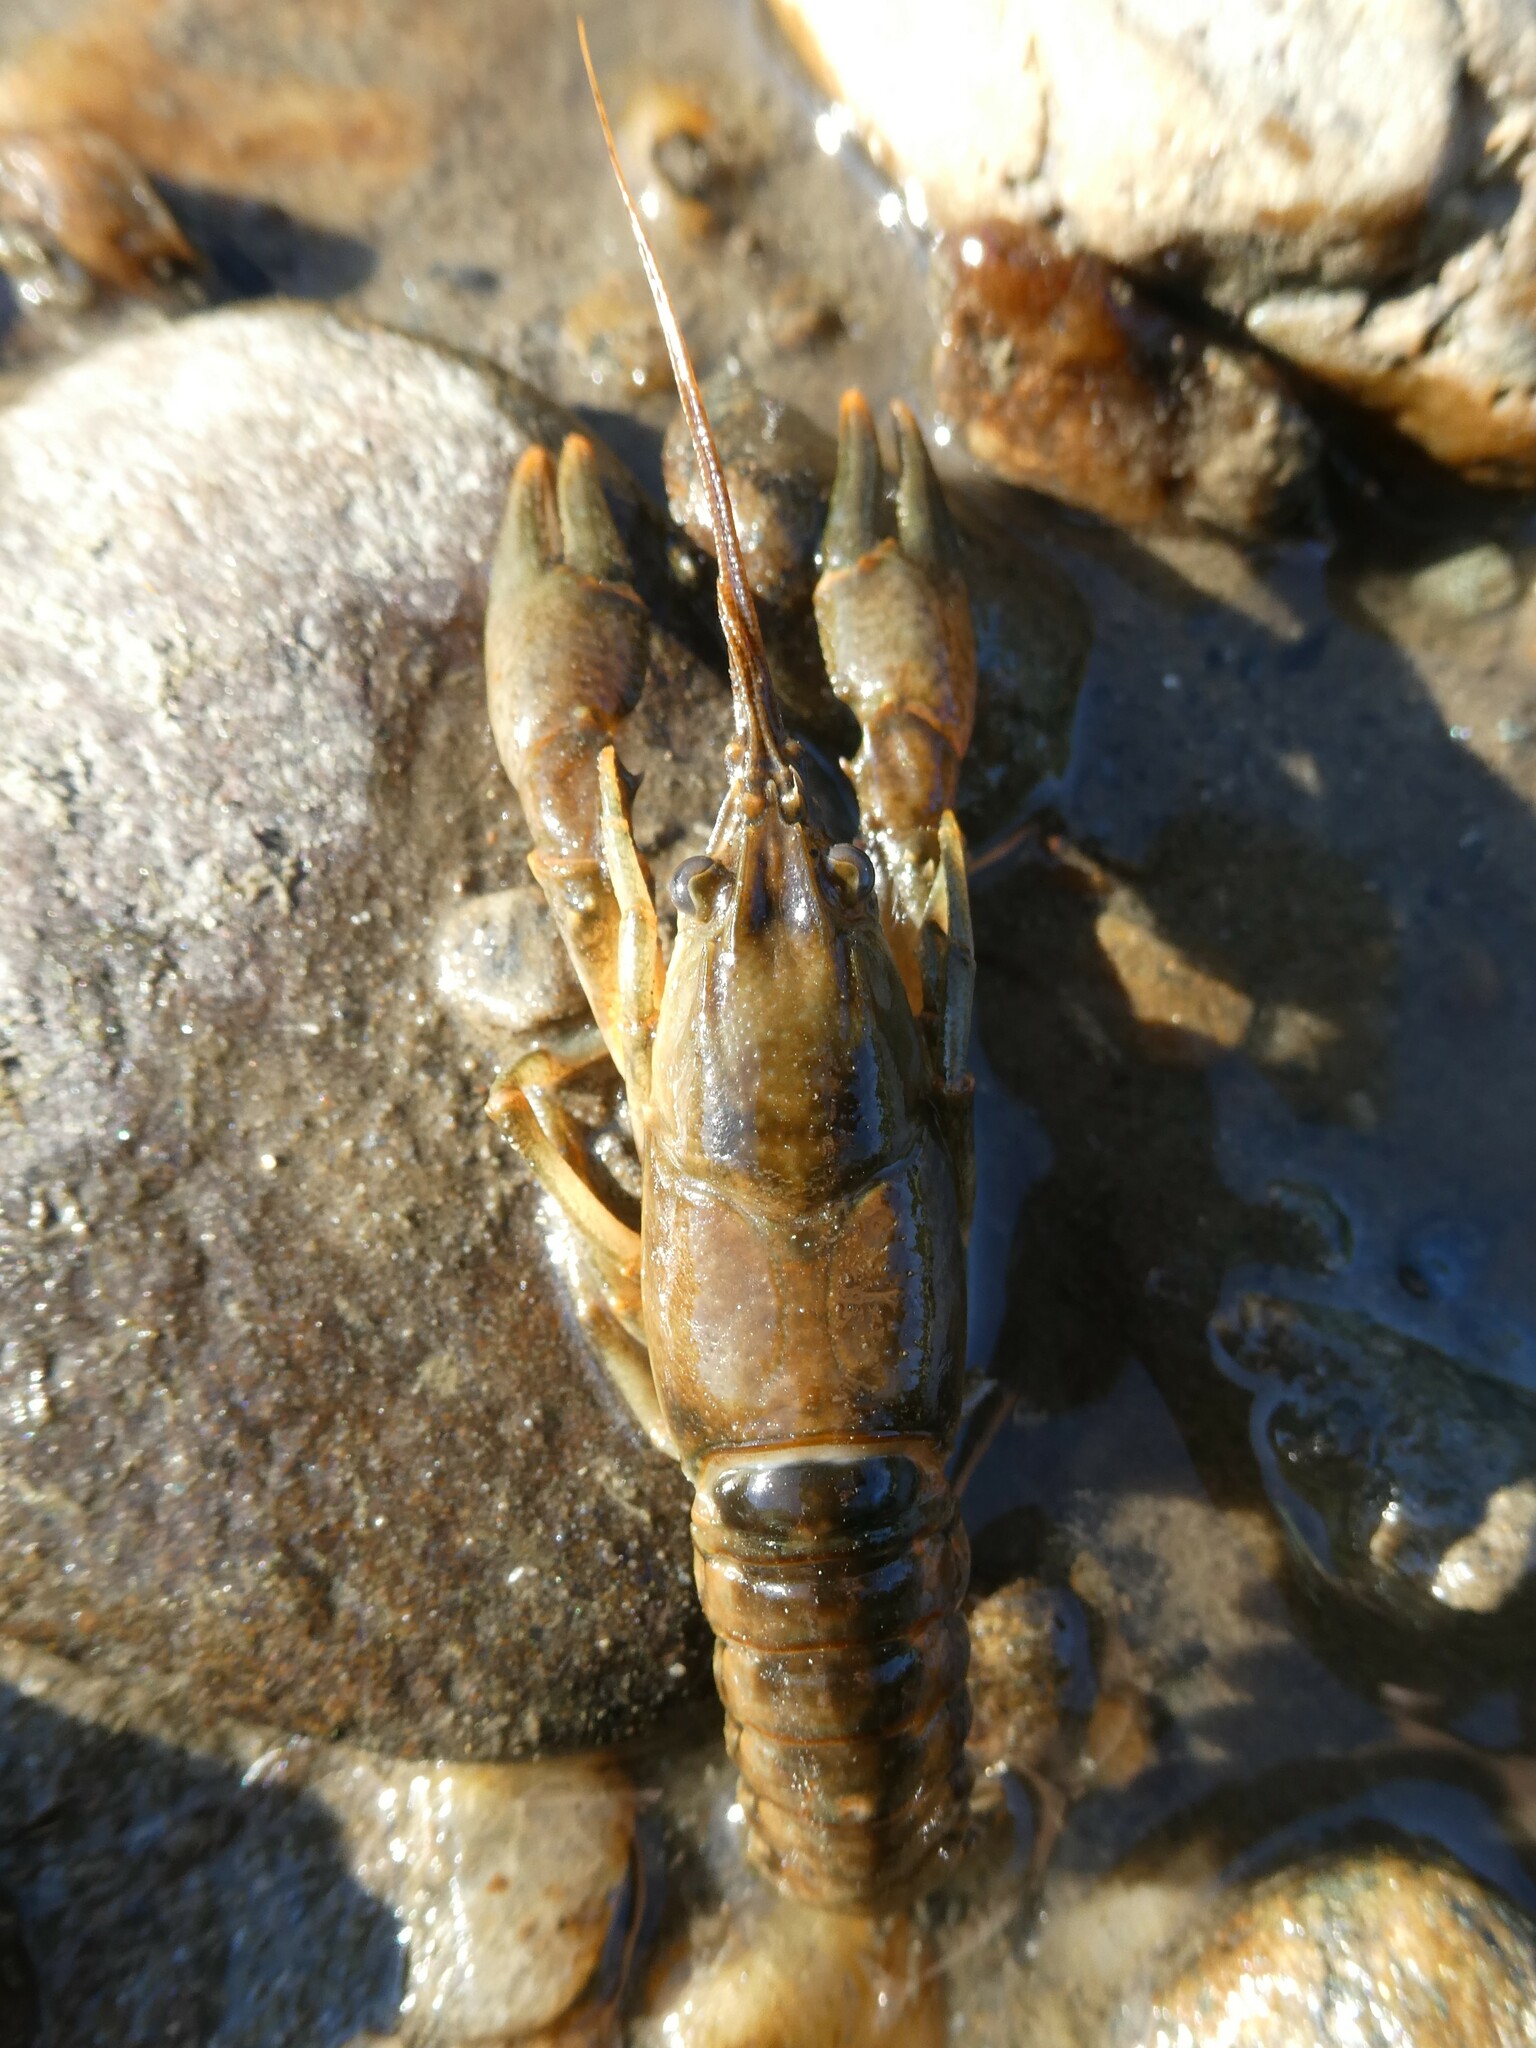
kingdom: Animalia
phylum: Arthropoda
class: Malacostraca
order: Decapoda
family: Cambaridae
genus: Faxonius
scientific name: Faxonius propinquus
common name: Northern clearwater crayfish
